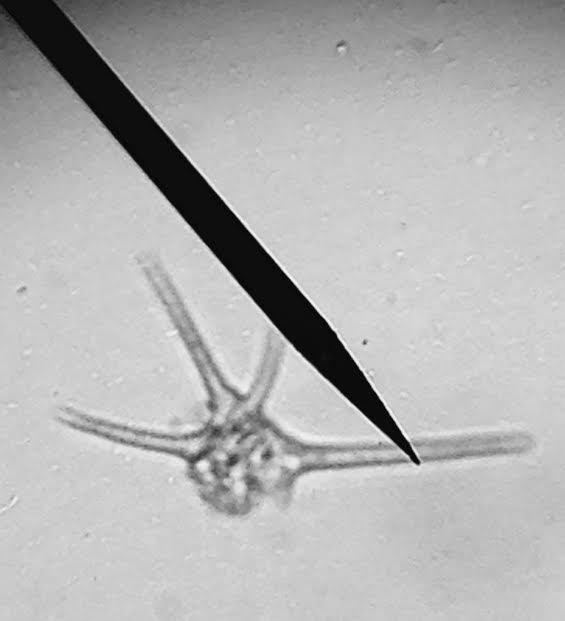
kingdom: Chromista
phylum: Myzozoa
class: Dinophyceae
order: Gonyaulacales
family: Ceratiaceae
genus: Ceratium
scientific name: Ceratium
